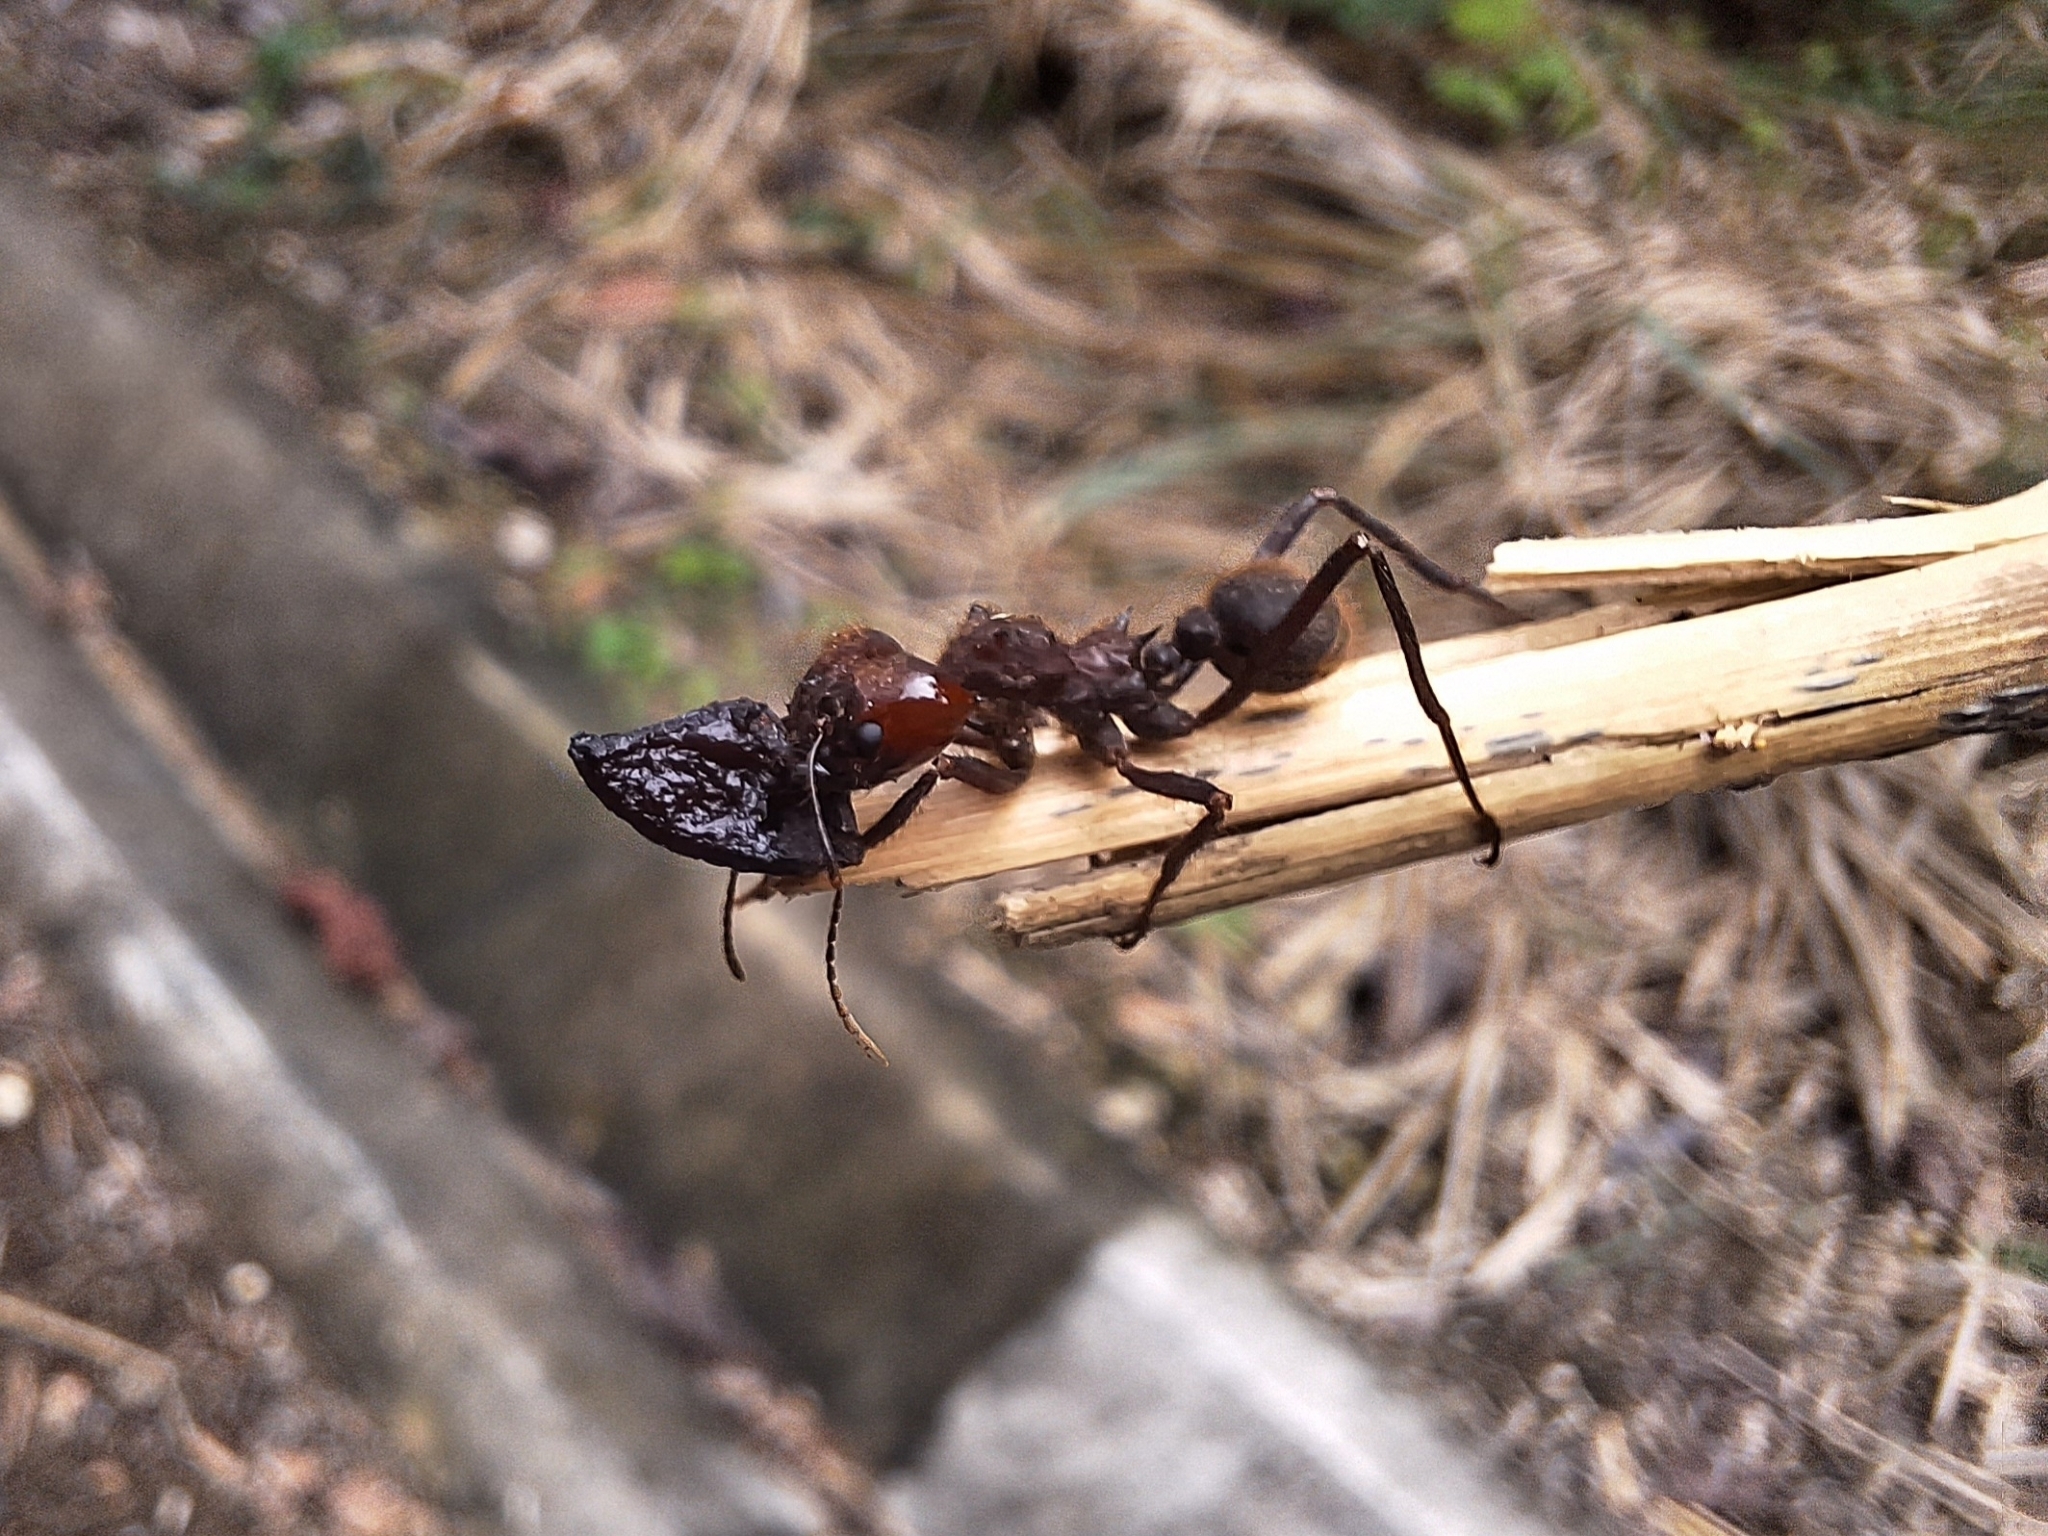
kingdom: Animalia
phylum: Arthropoda
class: Insecta
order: Hymenoptera
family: Formicidae
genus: Atta
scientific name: Atta cephalotes
